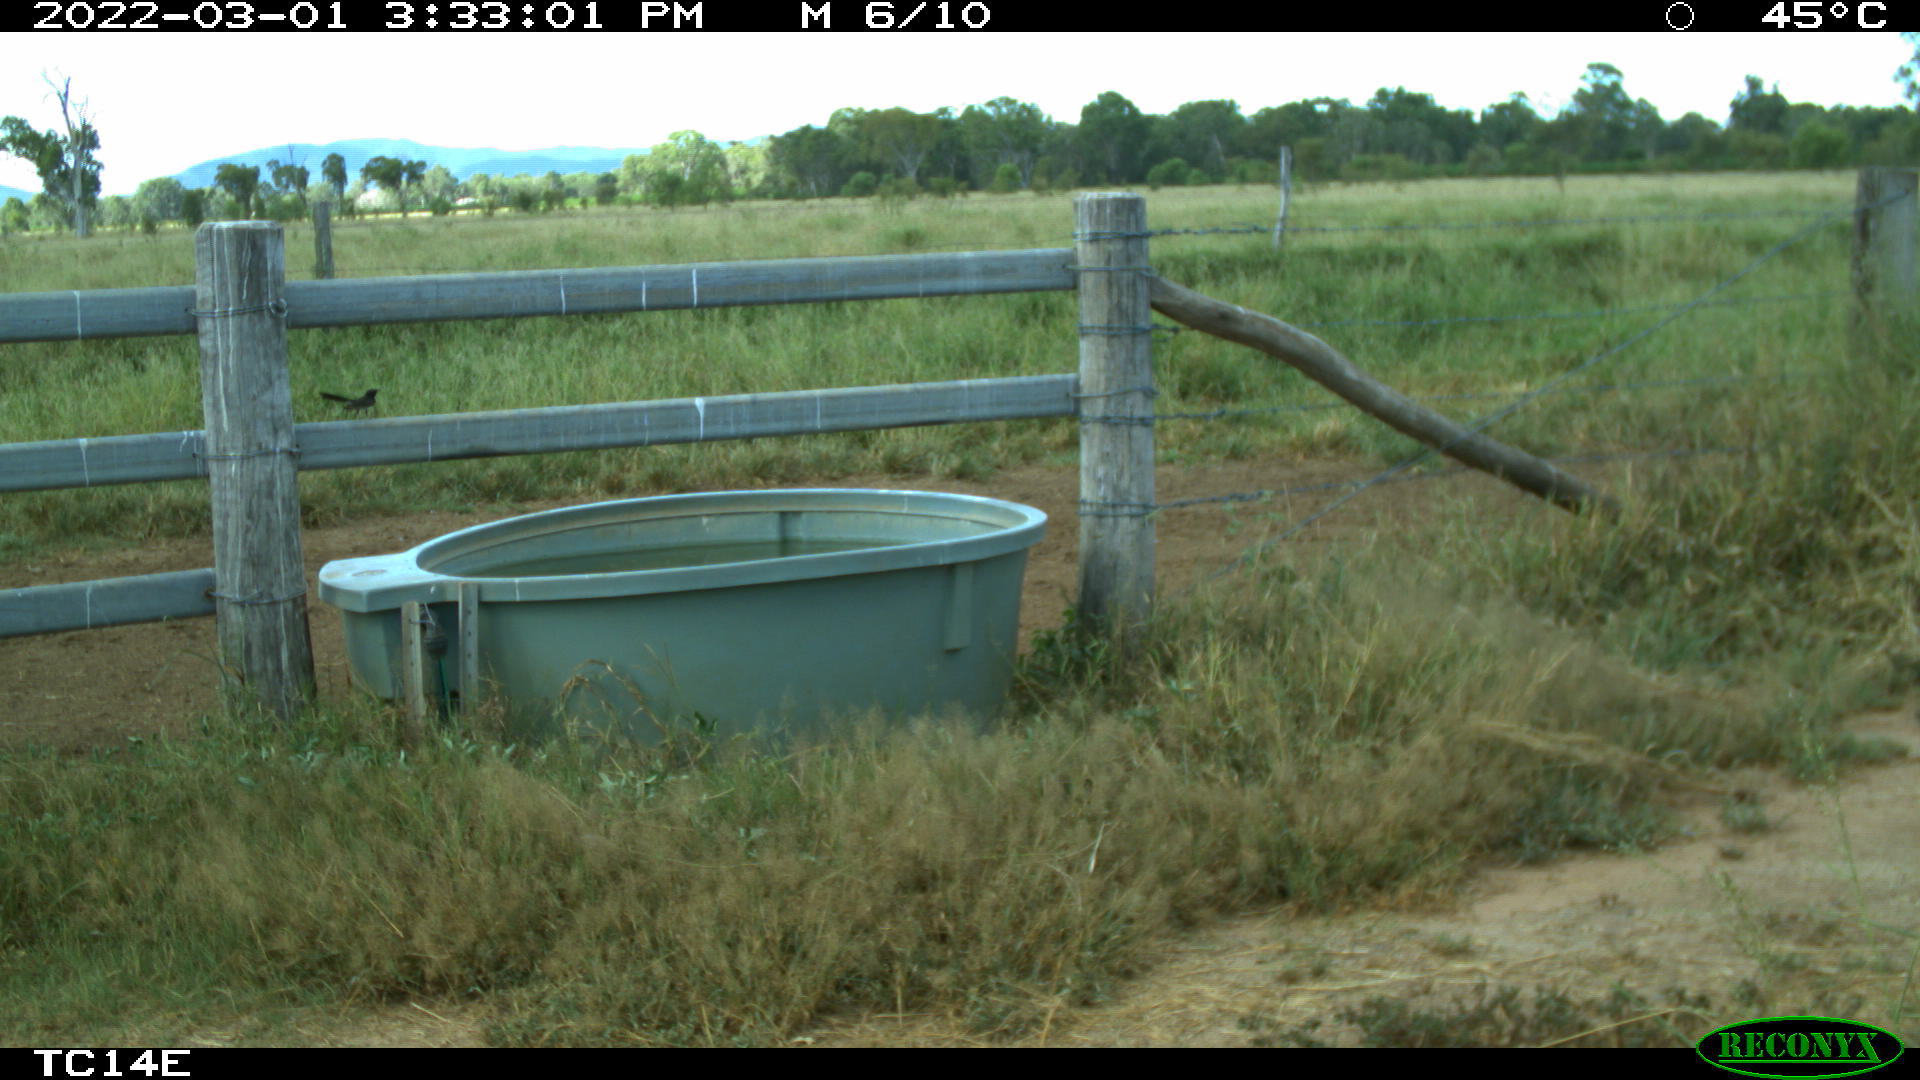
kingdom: Animalia
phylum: Chordata
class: Aves
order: Passeriformes
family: Rhipiduridae
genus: Rhipidura
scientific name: Rhipidura leucophrys
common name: Willie wagtail
